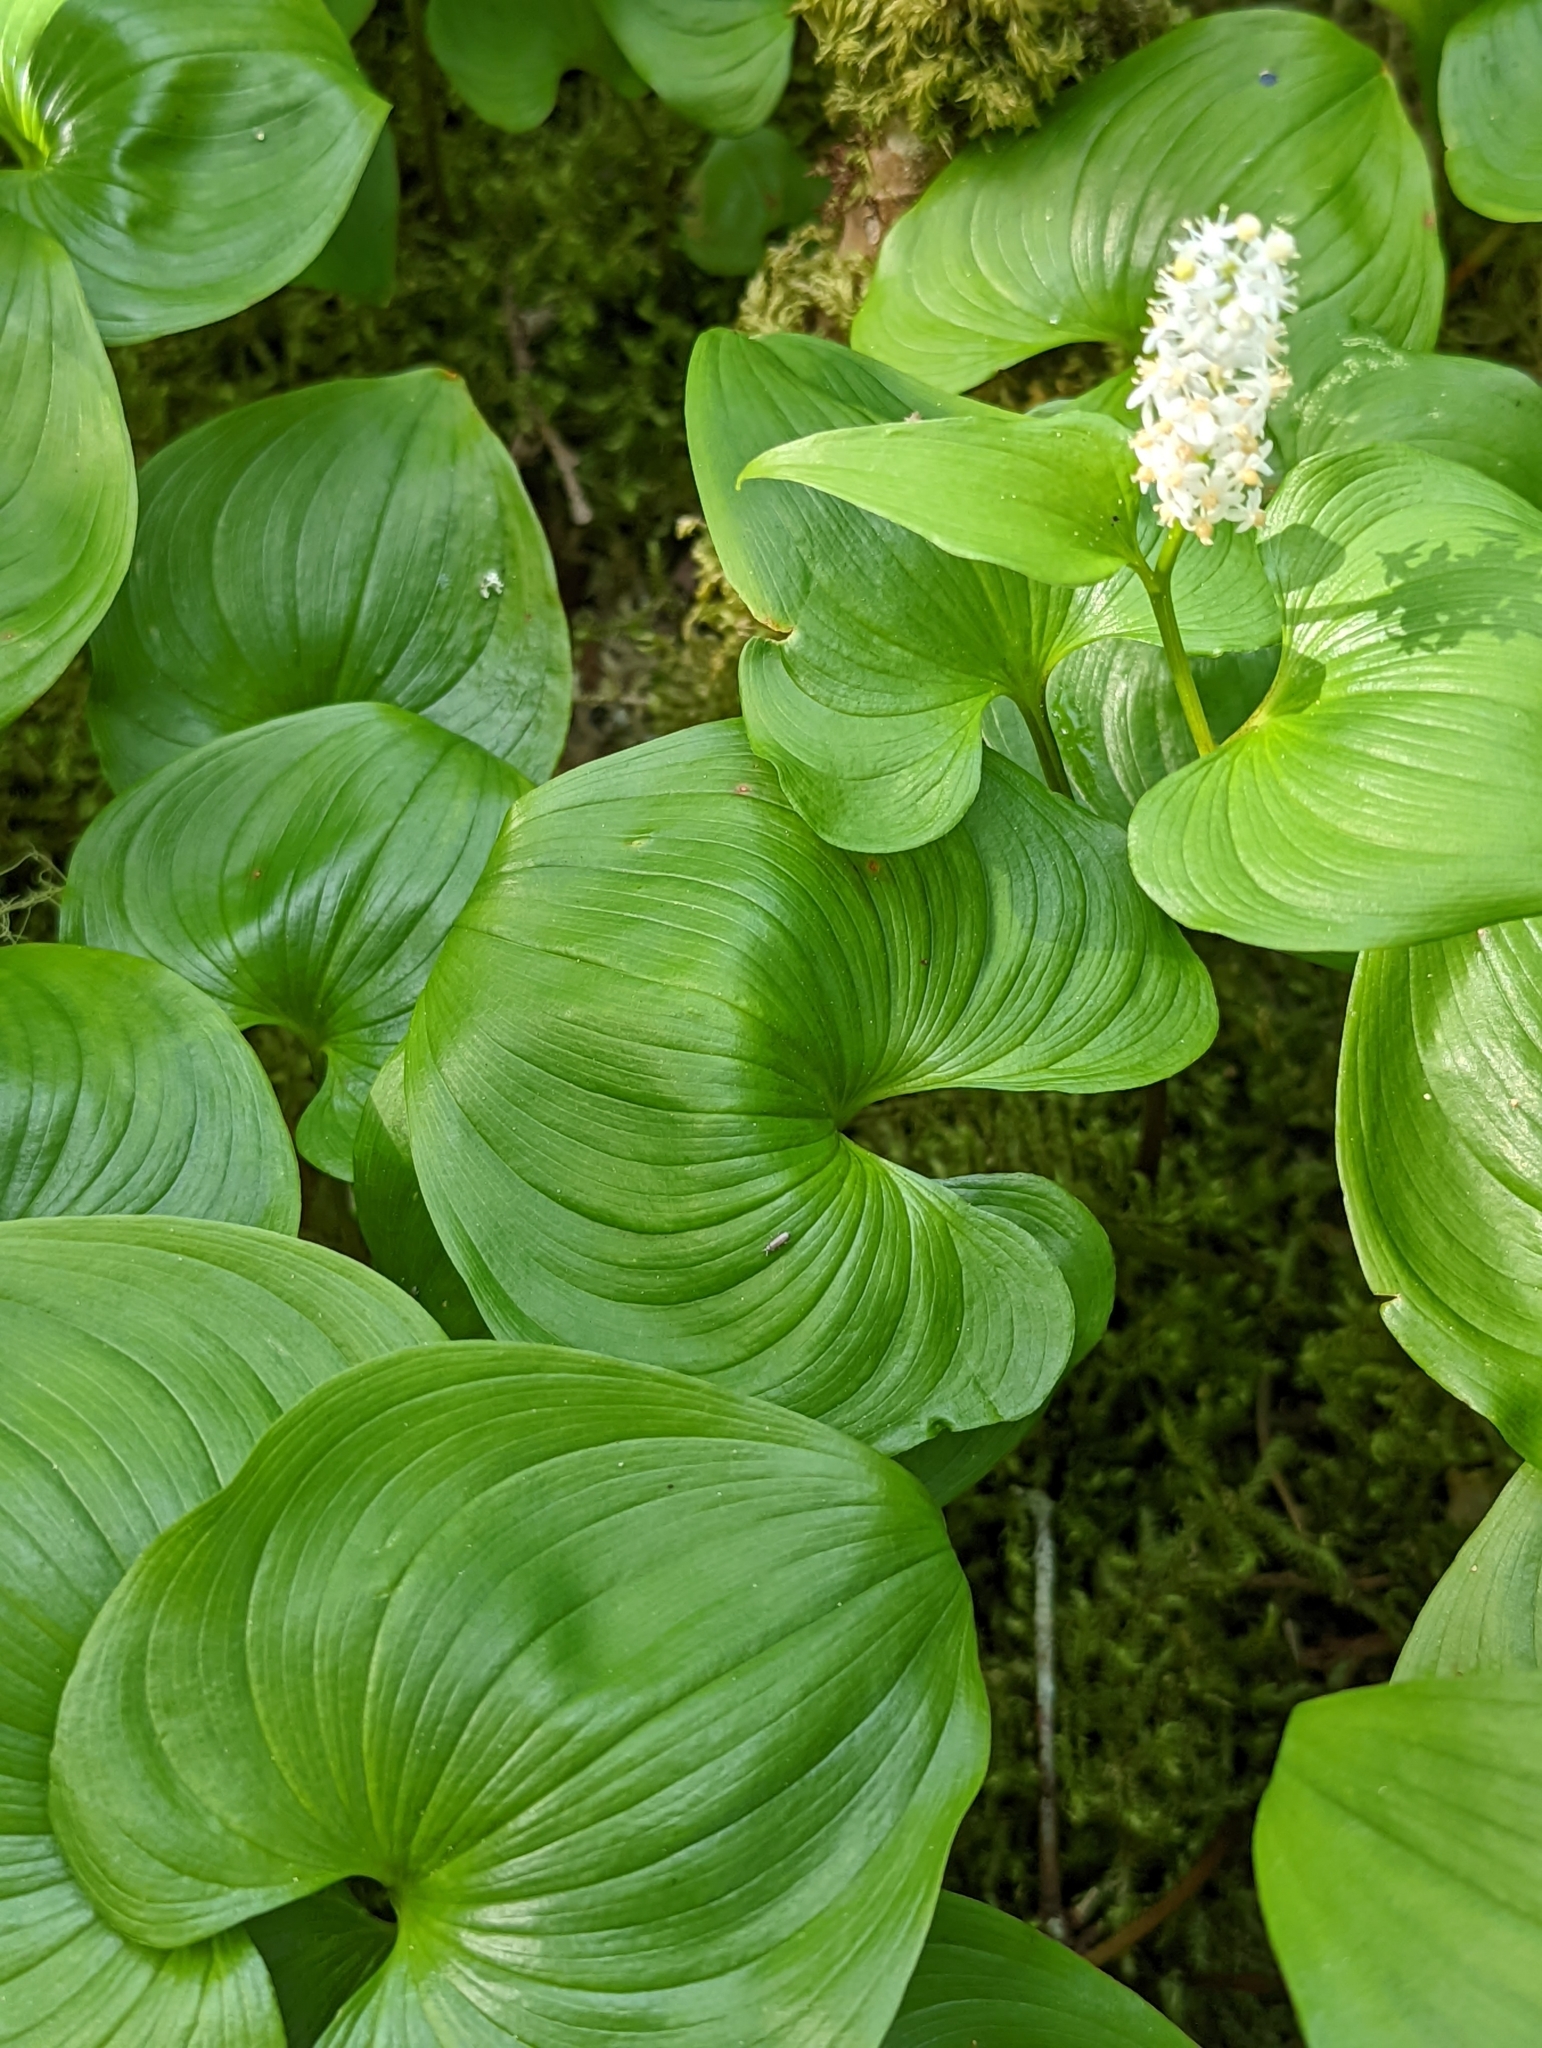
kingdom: Plantae
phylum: Tracheophyta
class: Liliopsida
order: Asparagales
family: Asparagaceae
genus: Maianthemum
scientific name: Maianthemum dilatatum
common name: False lily-of-the-valley
